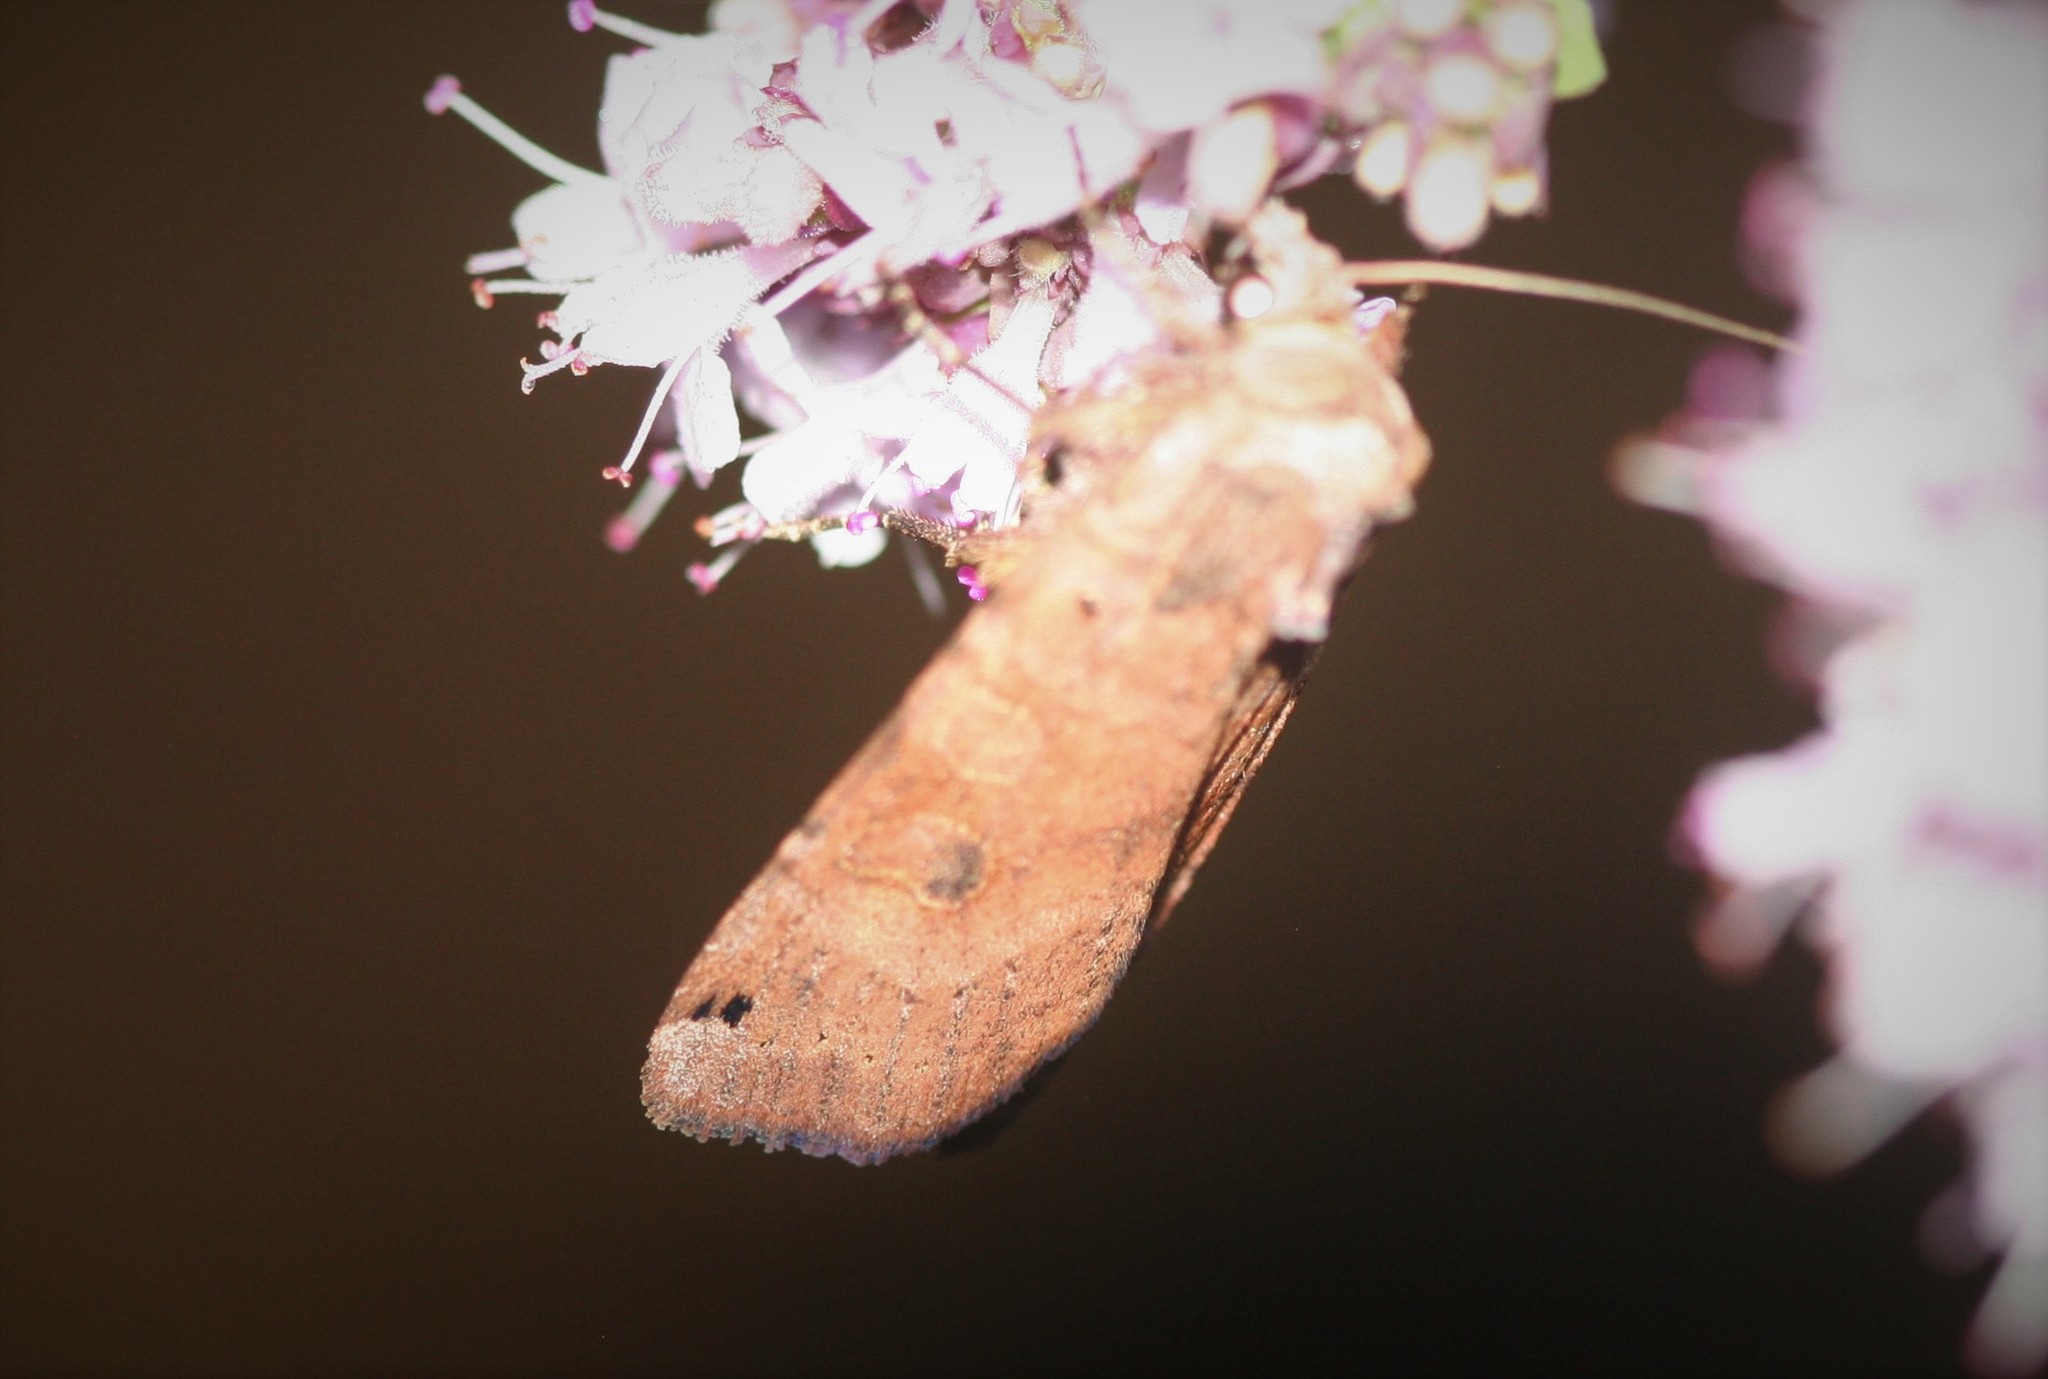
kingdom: Animalia
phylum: Arthropoda
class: Insecta
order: Lepidoptera
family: Noctuidae
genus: Xestia
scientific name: Xestia baja
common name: Dotted clay
